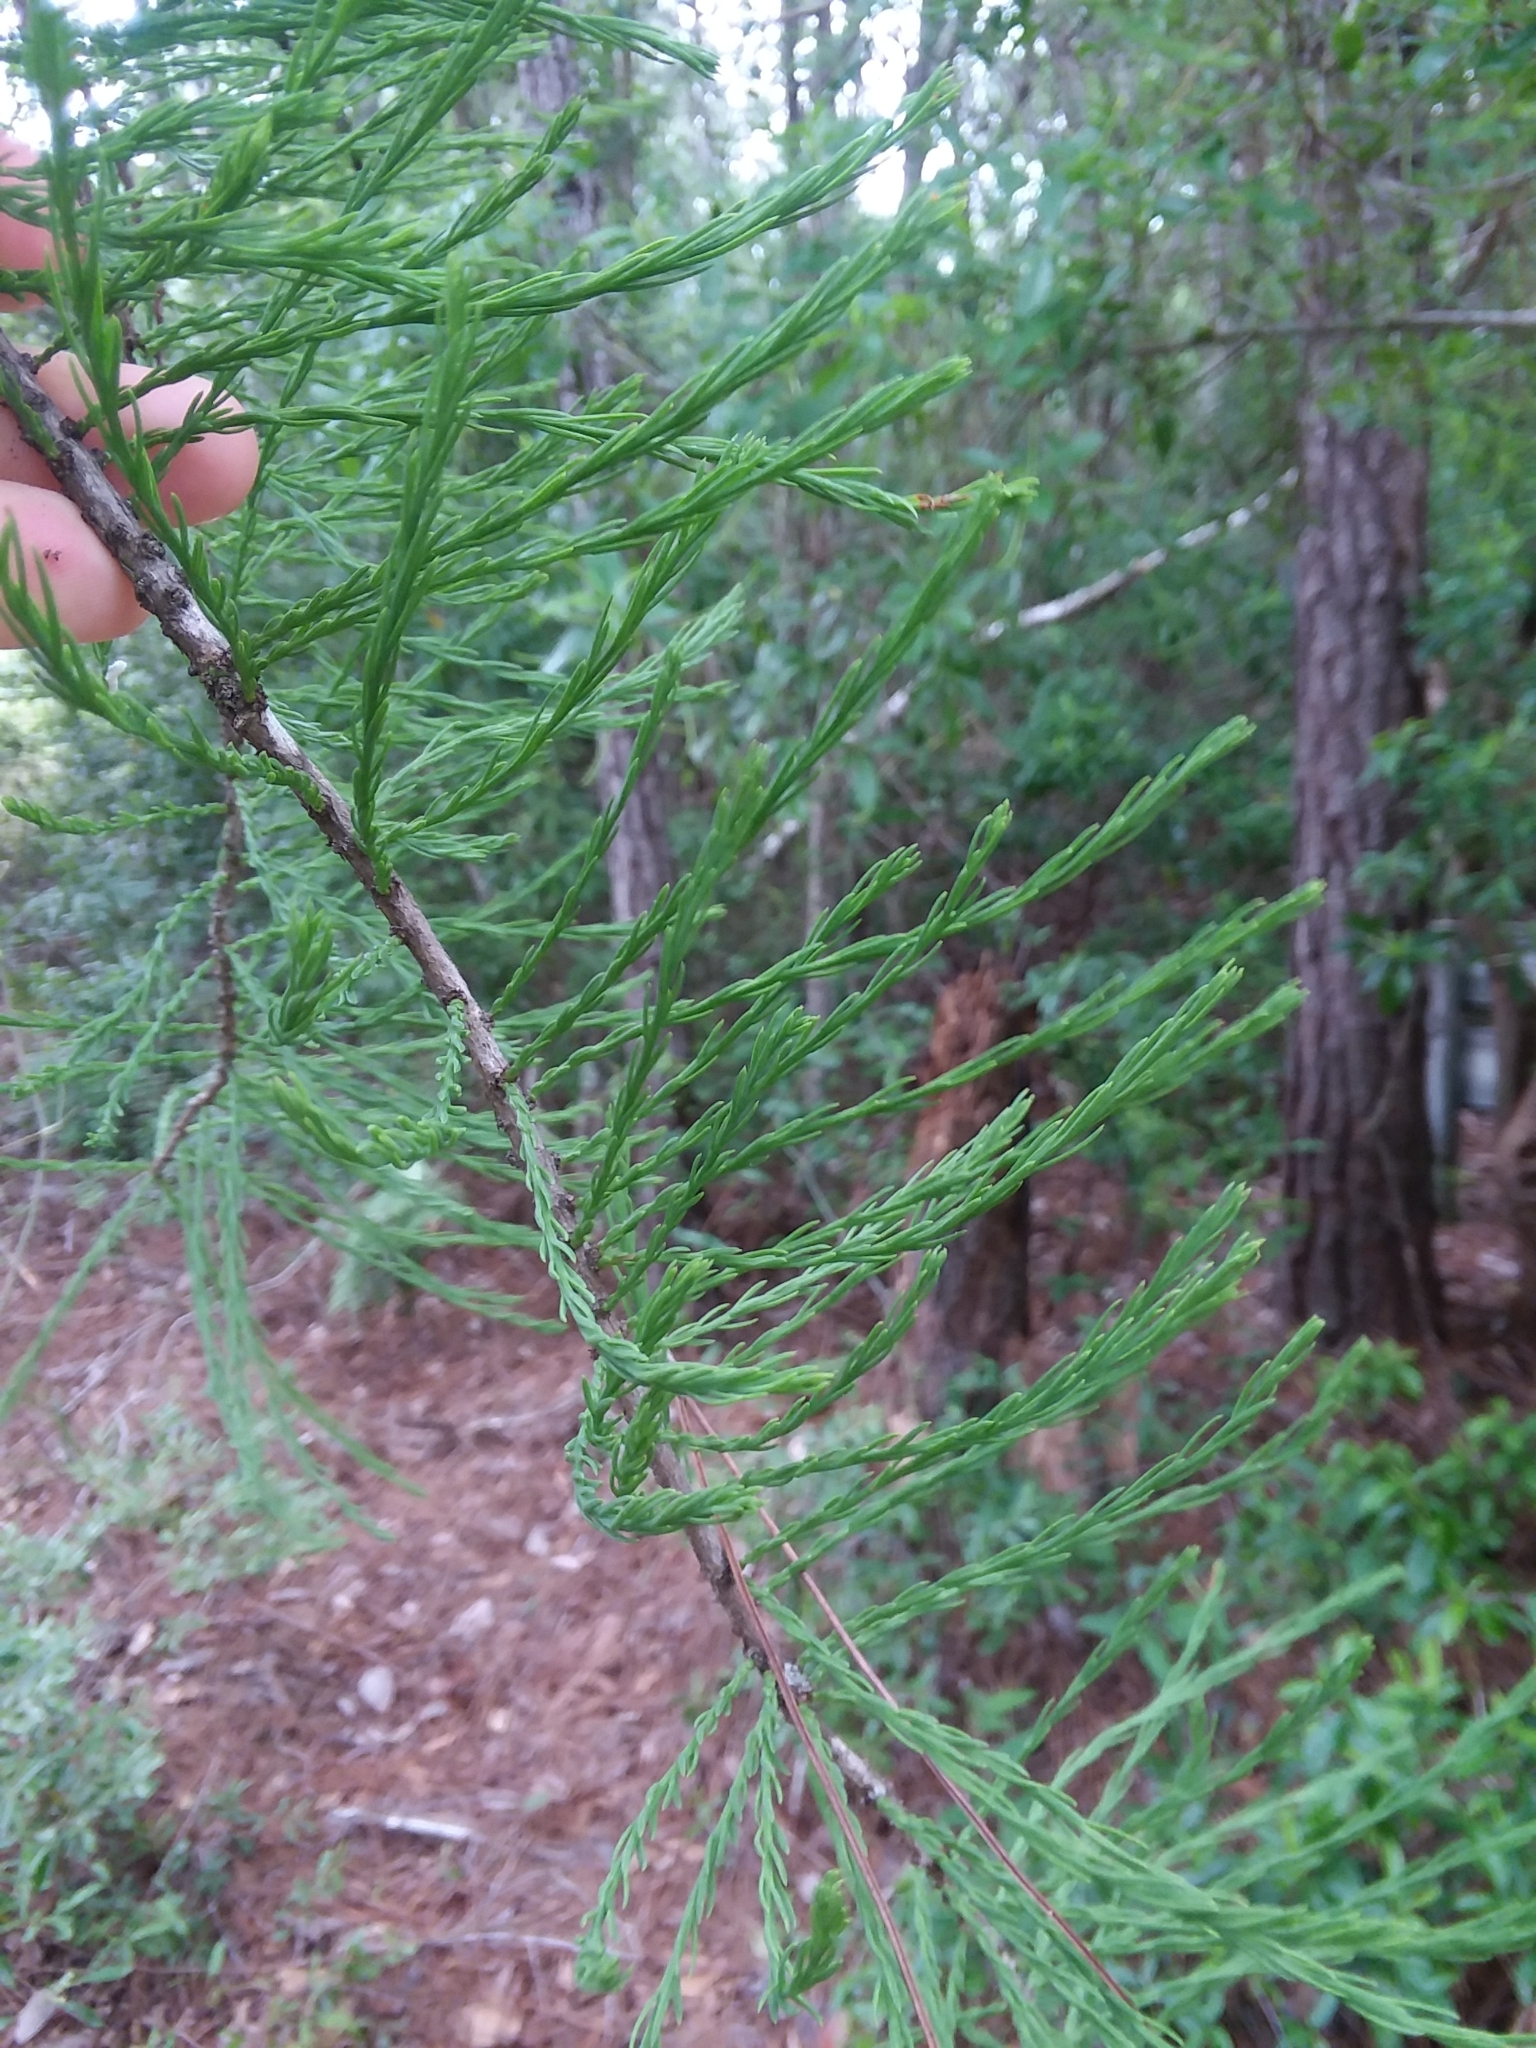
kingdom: Plantae
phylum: Tracheophyta
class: Pinopsida
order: Pinales
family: Cupressaceae
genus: Taxodium
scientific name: Taxodium distichum
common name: Bald cypress
